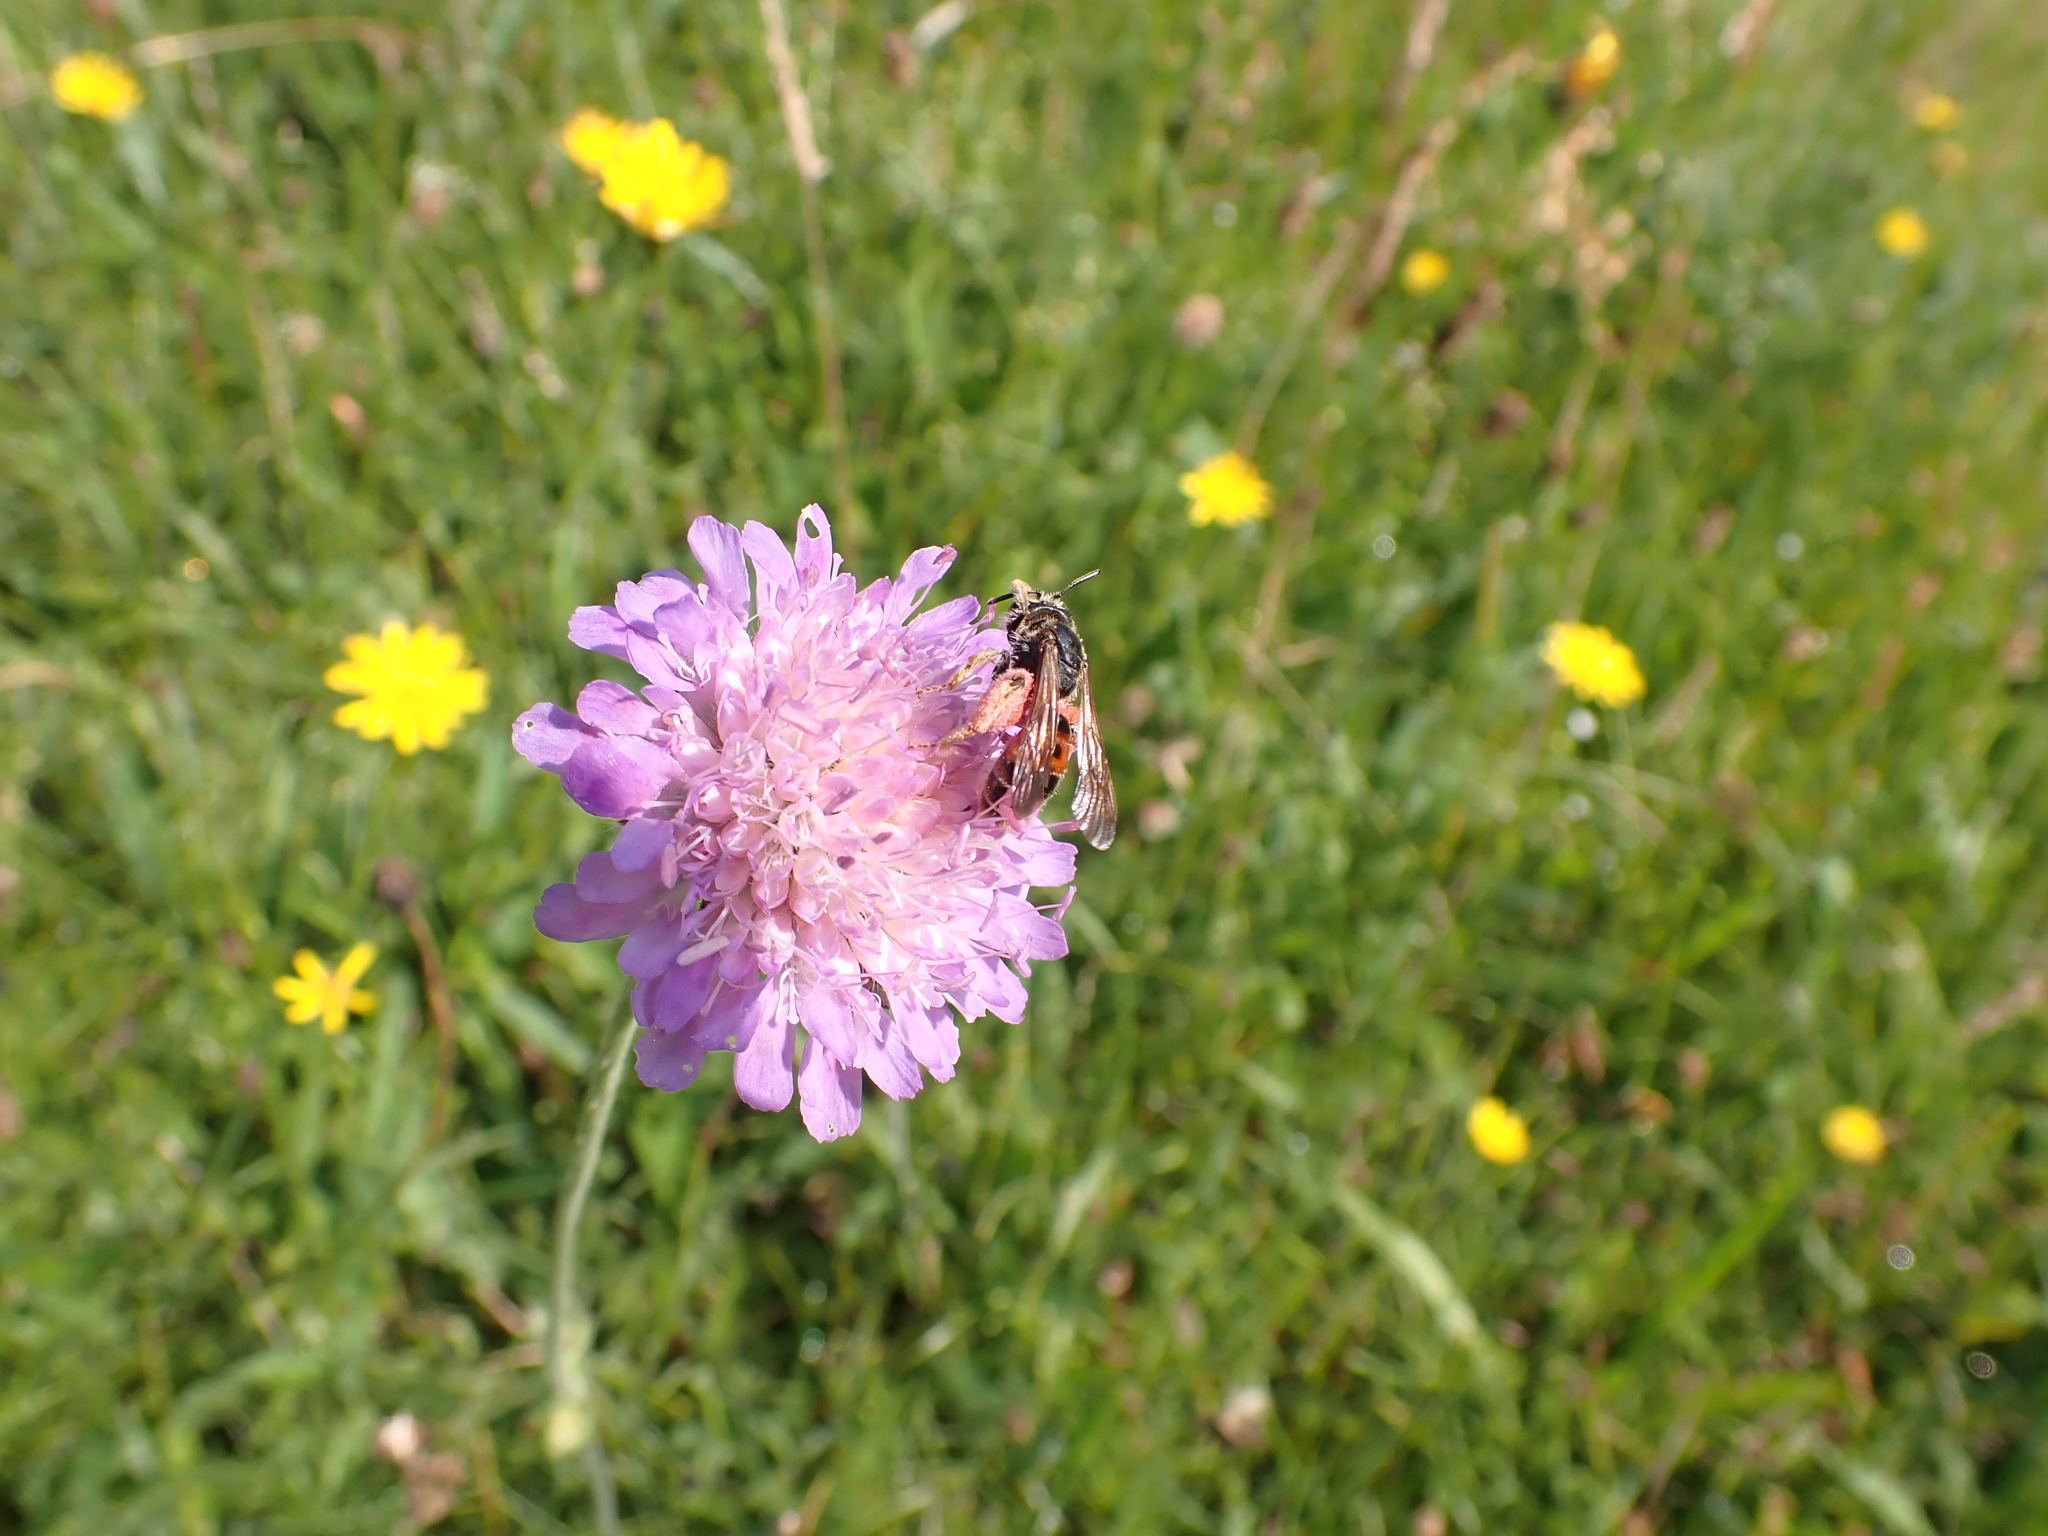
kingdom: Animalia
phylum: Arthropoda
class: Insecta
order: Hymenoptera
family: Andrenidae
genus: Andrena
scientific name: Andrena hattorfiana
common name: Large scabious mining bee
